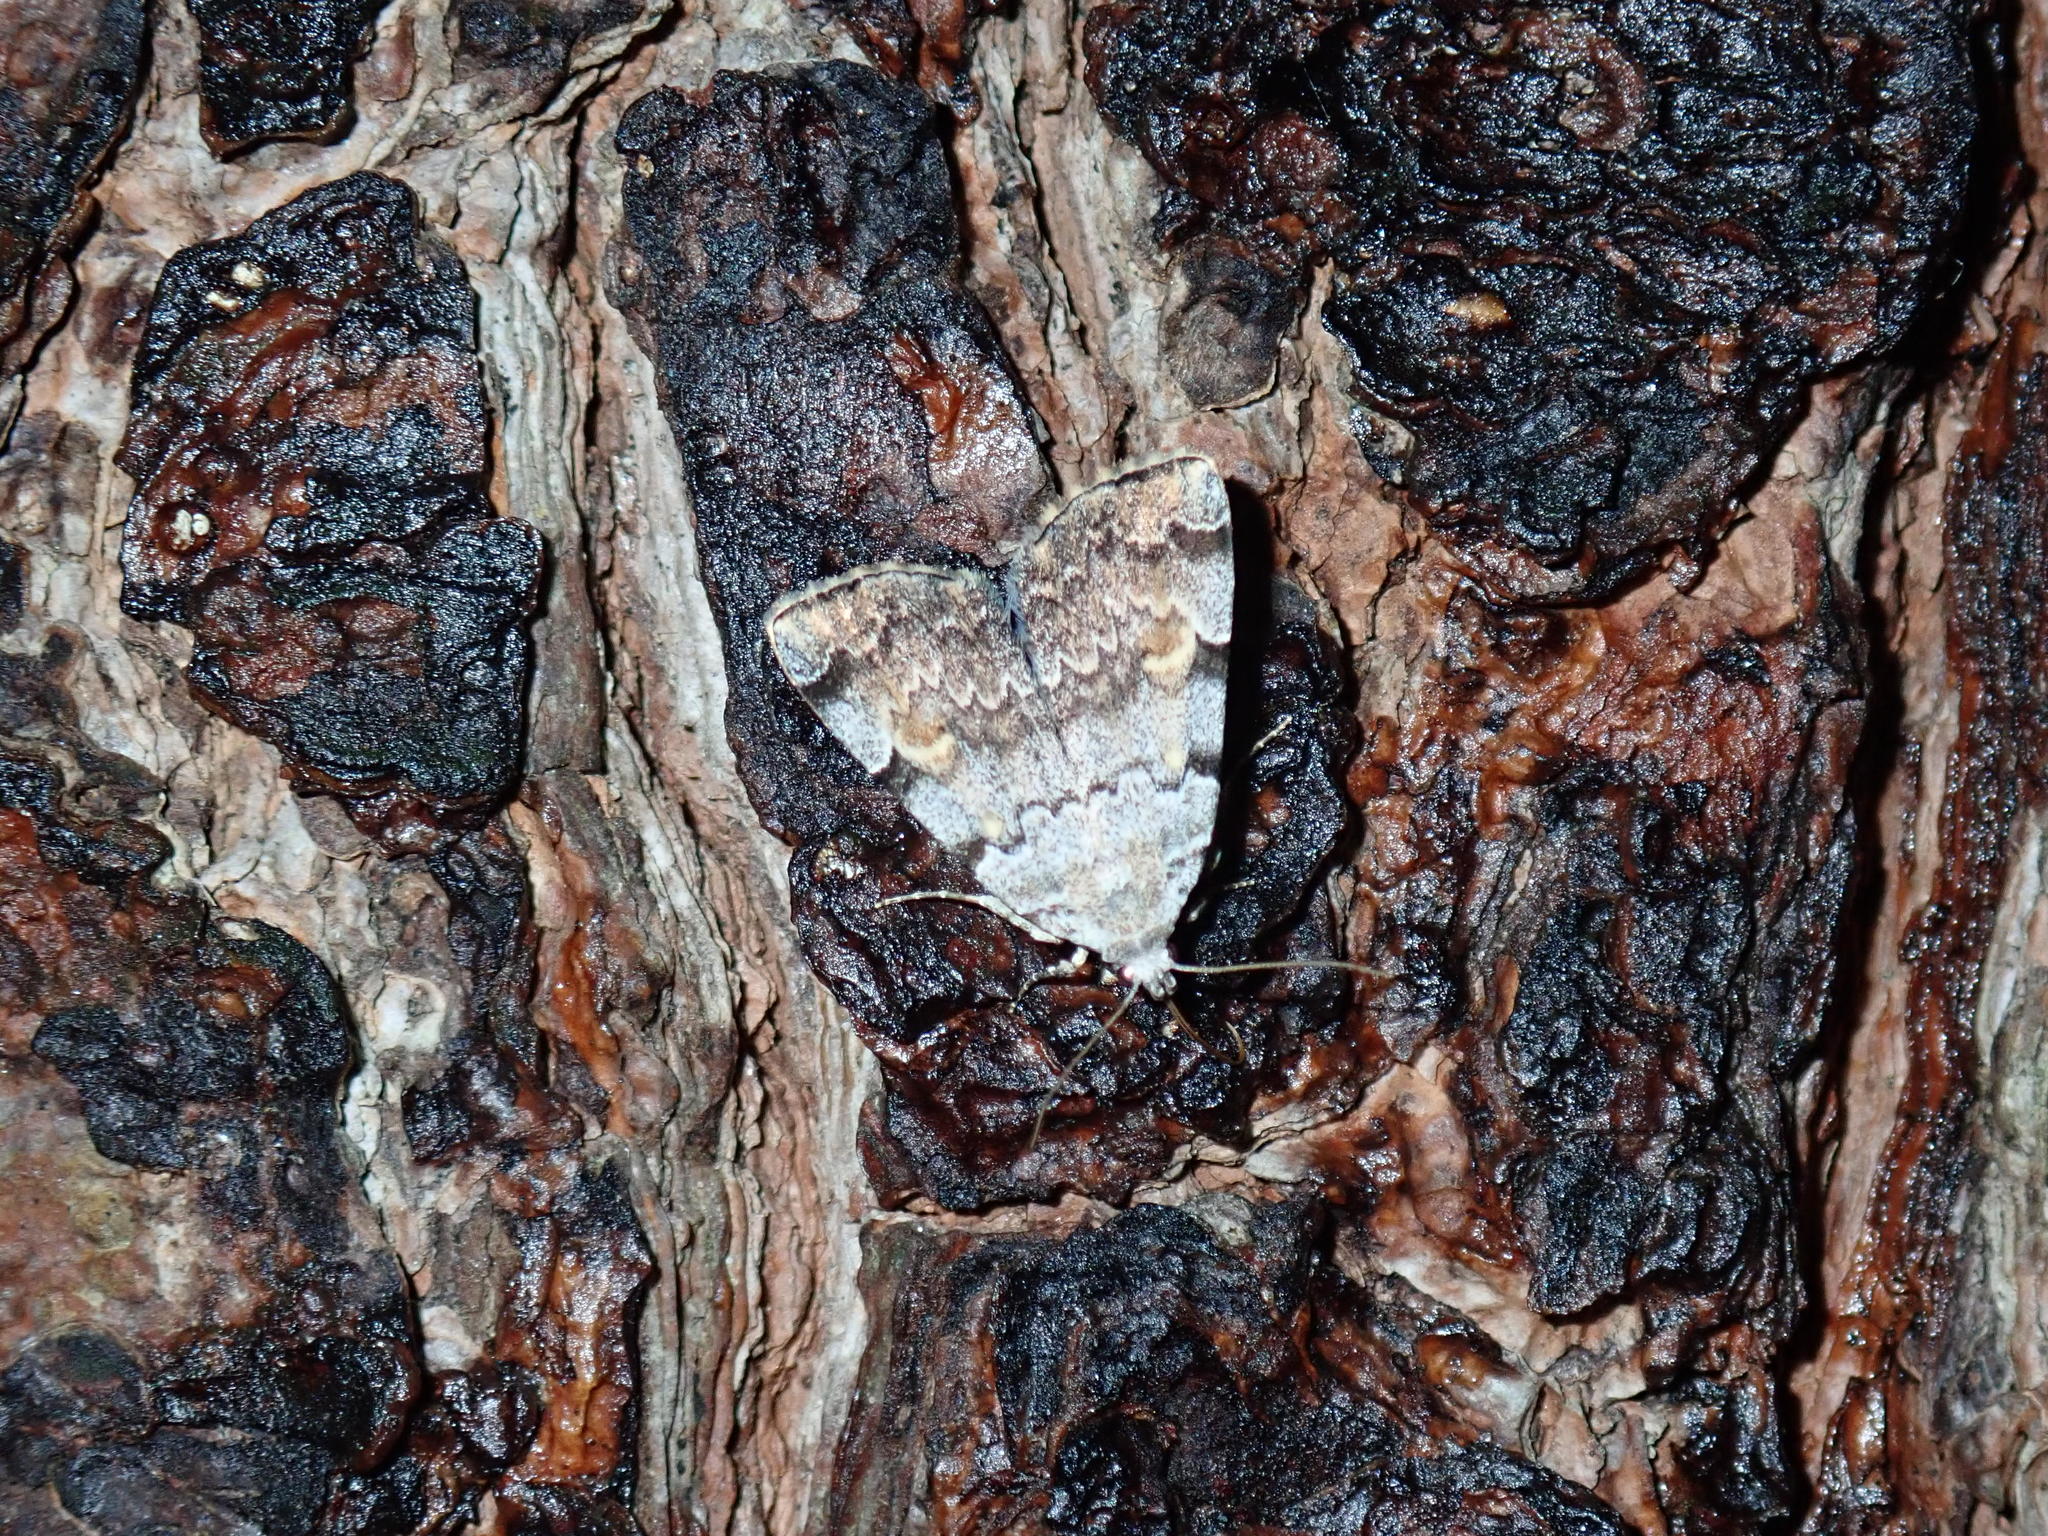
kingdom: Animalia
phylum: Arthropoda
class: Insecta
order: Lepidoptera
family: Erebidae
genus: Idia
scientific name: Idia americalis
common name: American idia moth
